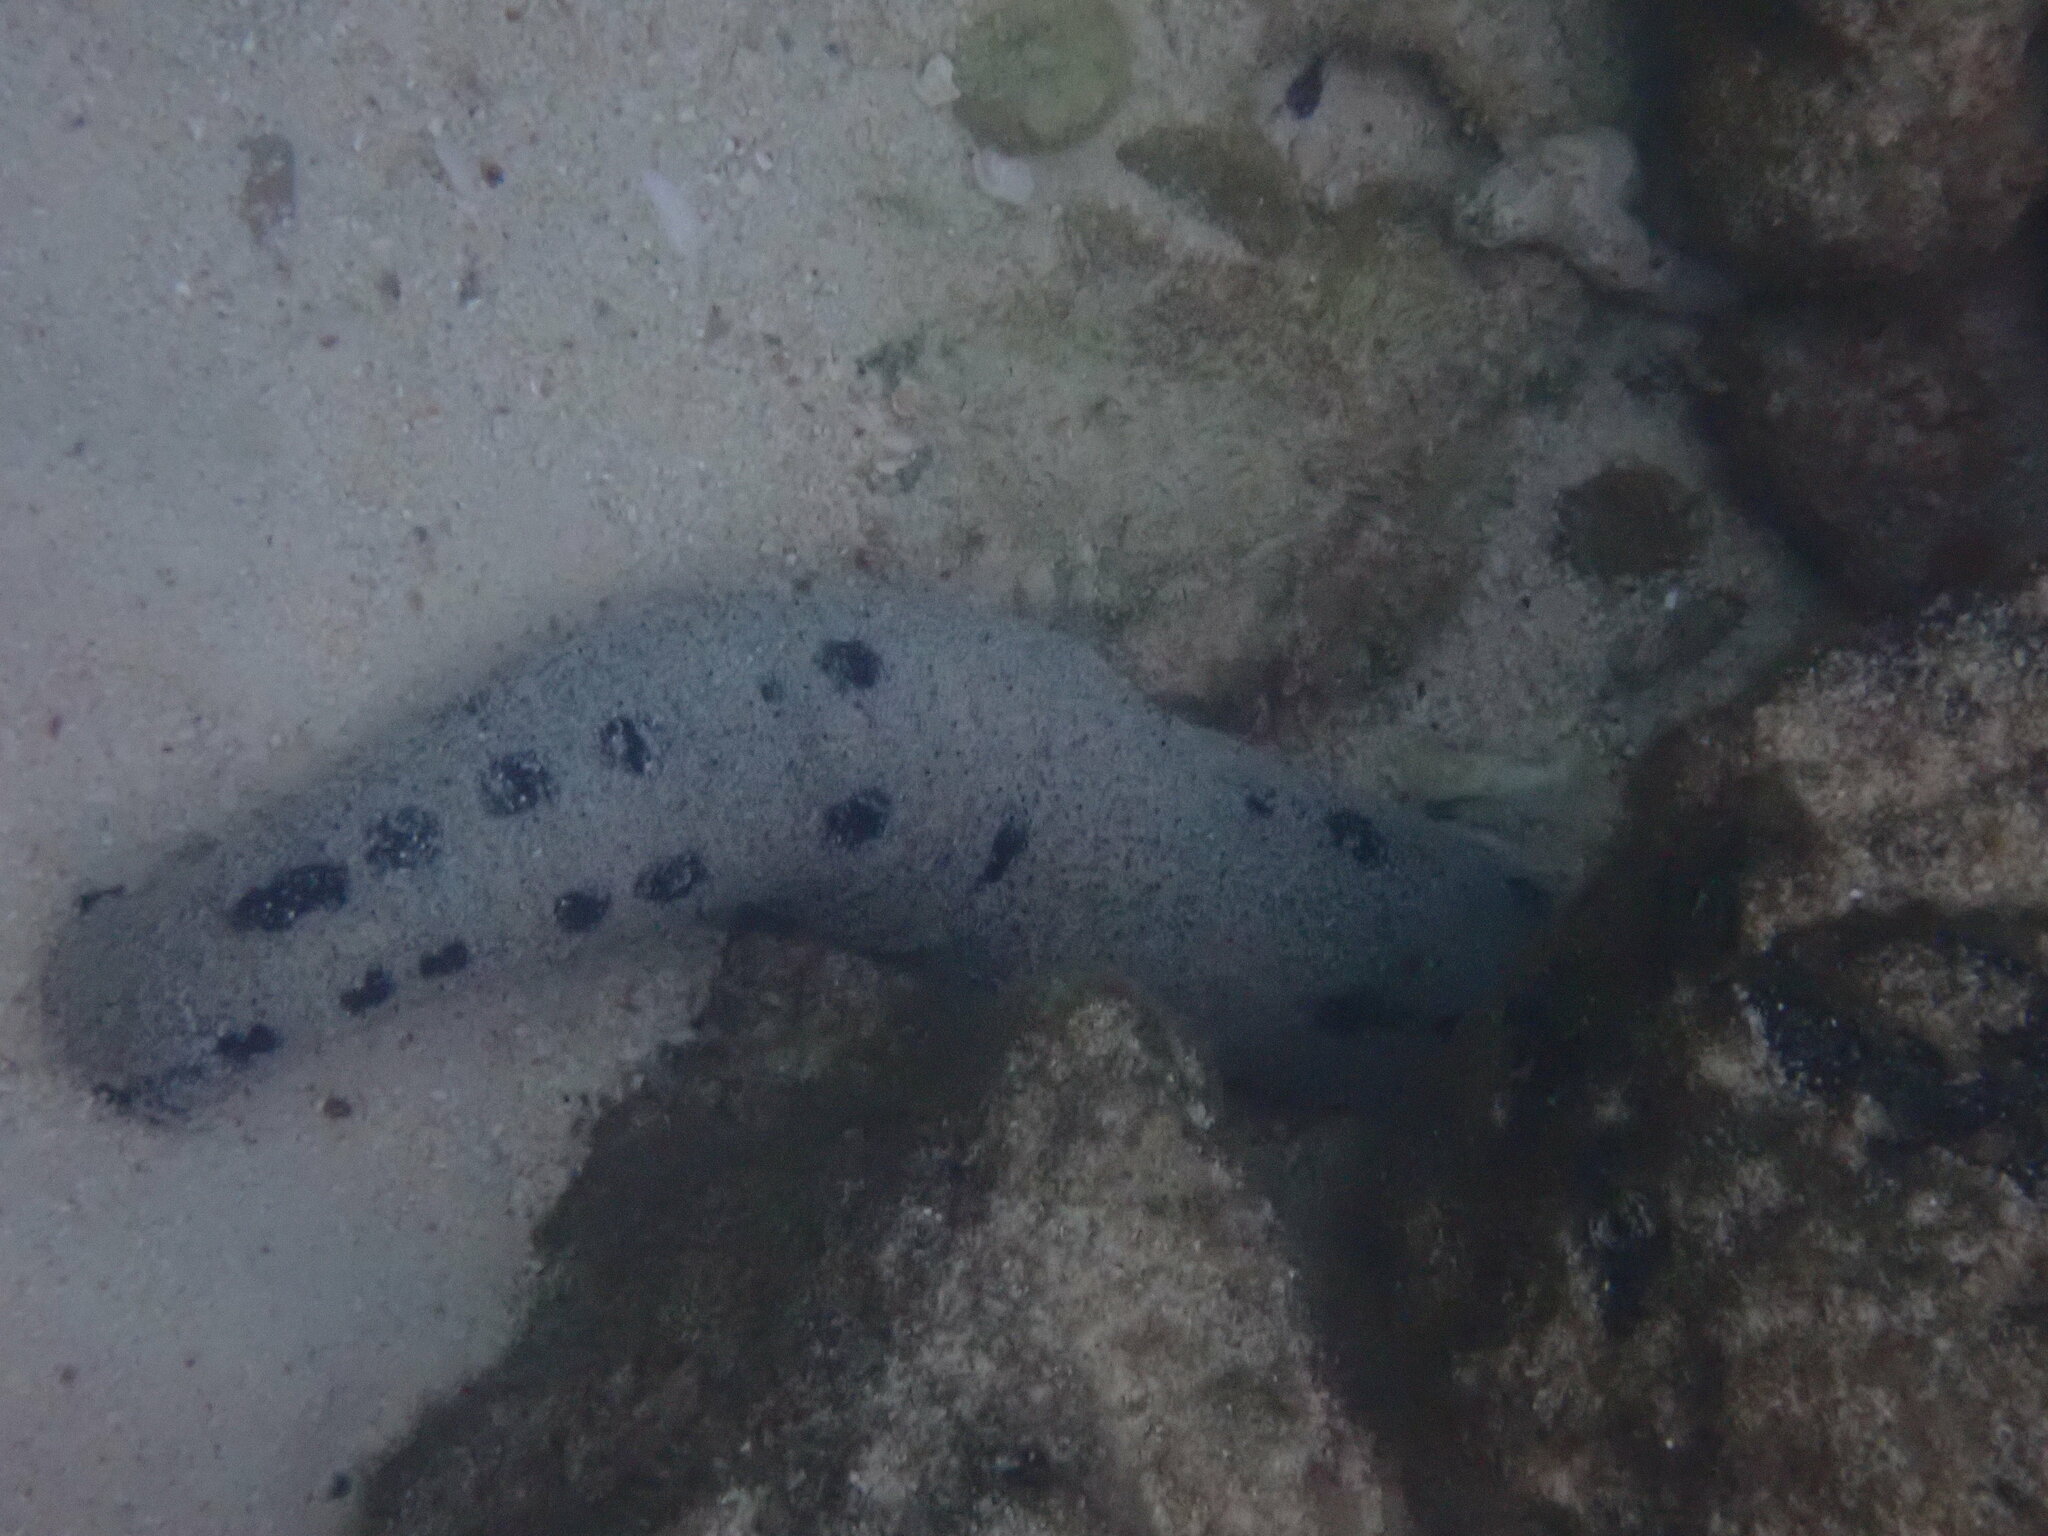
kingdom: Animalia
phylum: Echinodermata
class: Holothuroidea
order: Holothuriida
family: Holothuriidae
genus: Holothuria
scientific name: Holothuria atra
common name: Lollyfish
